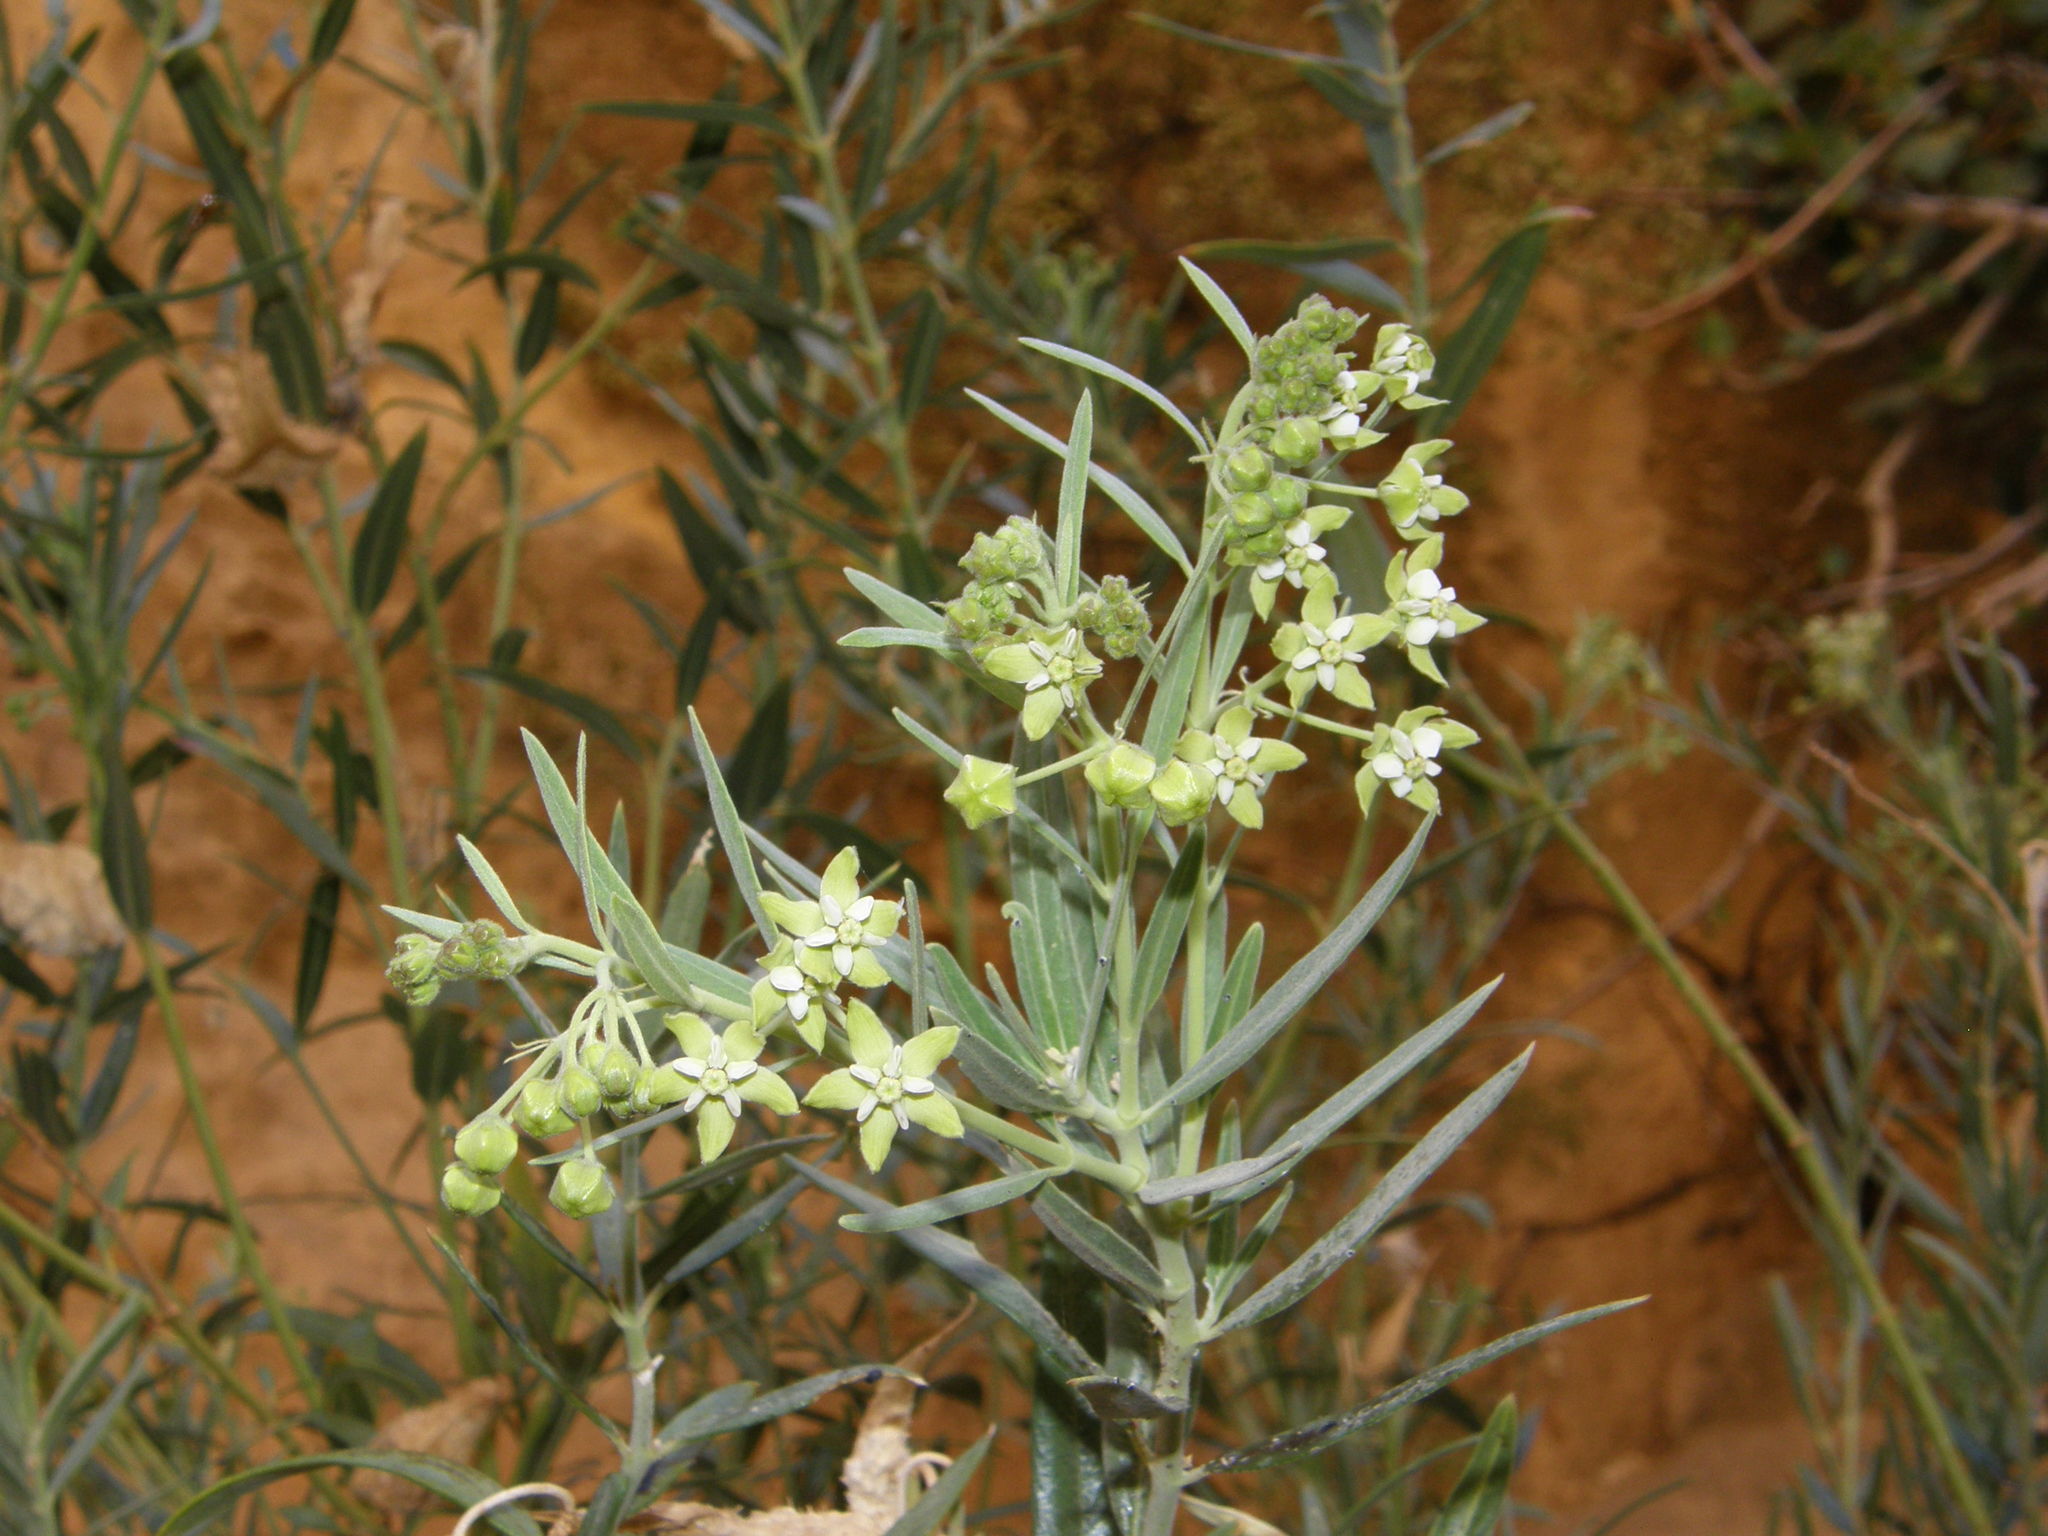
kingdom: Plantae
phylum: Tracheophyta
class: Magnoliopsida
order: Gentianales
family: Apocynaceae
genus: Gomphocarpus
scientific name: Gomphocarpus sinaicus
